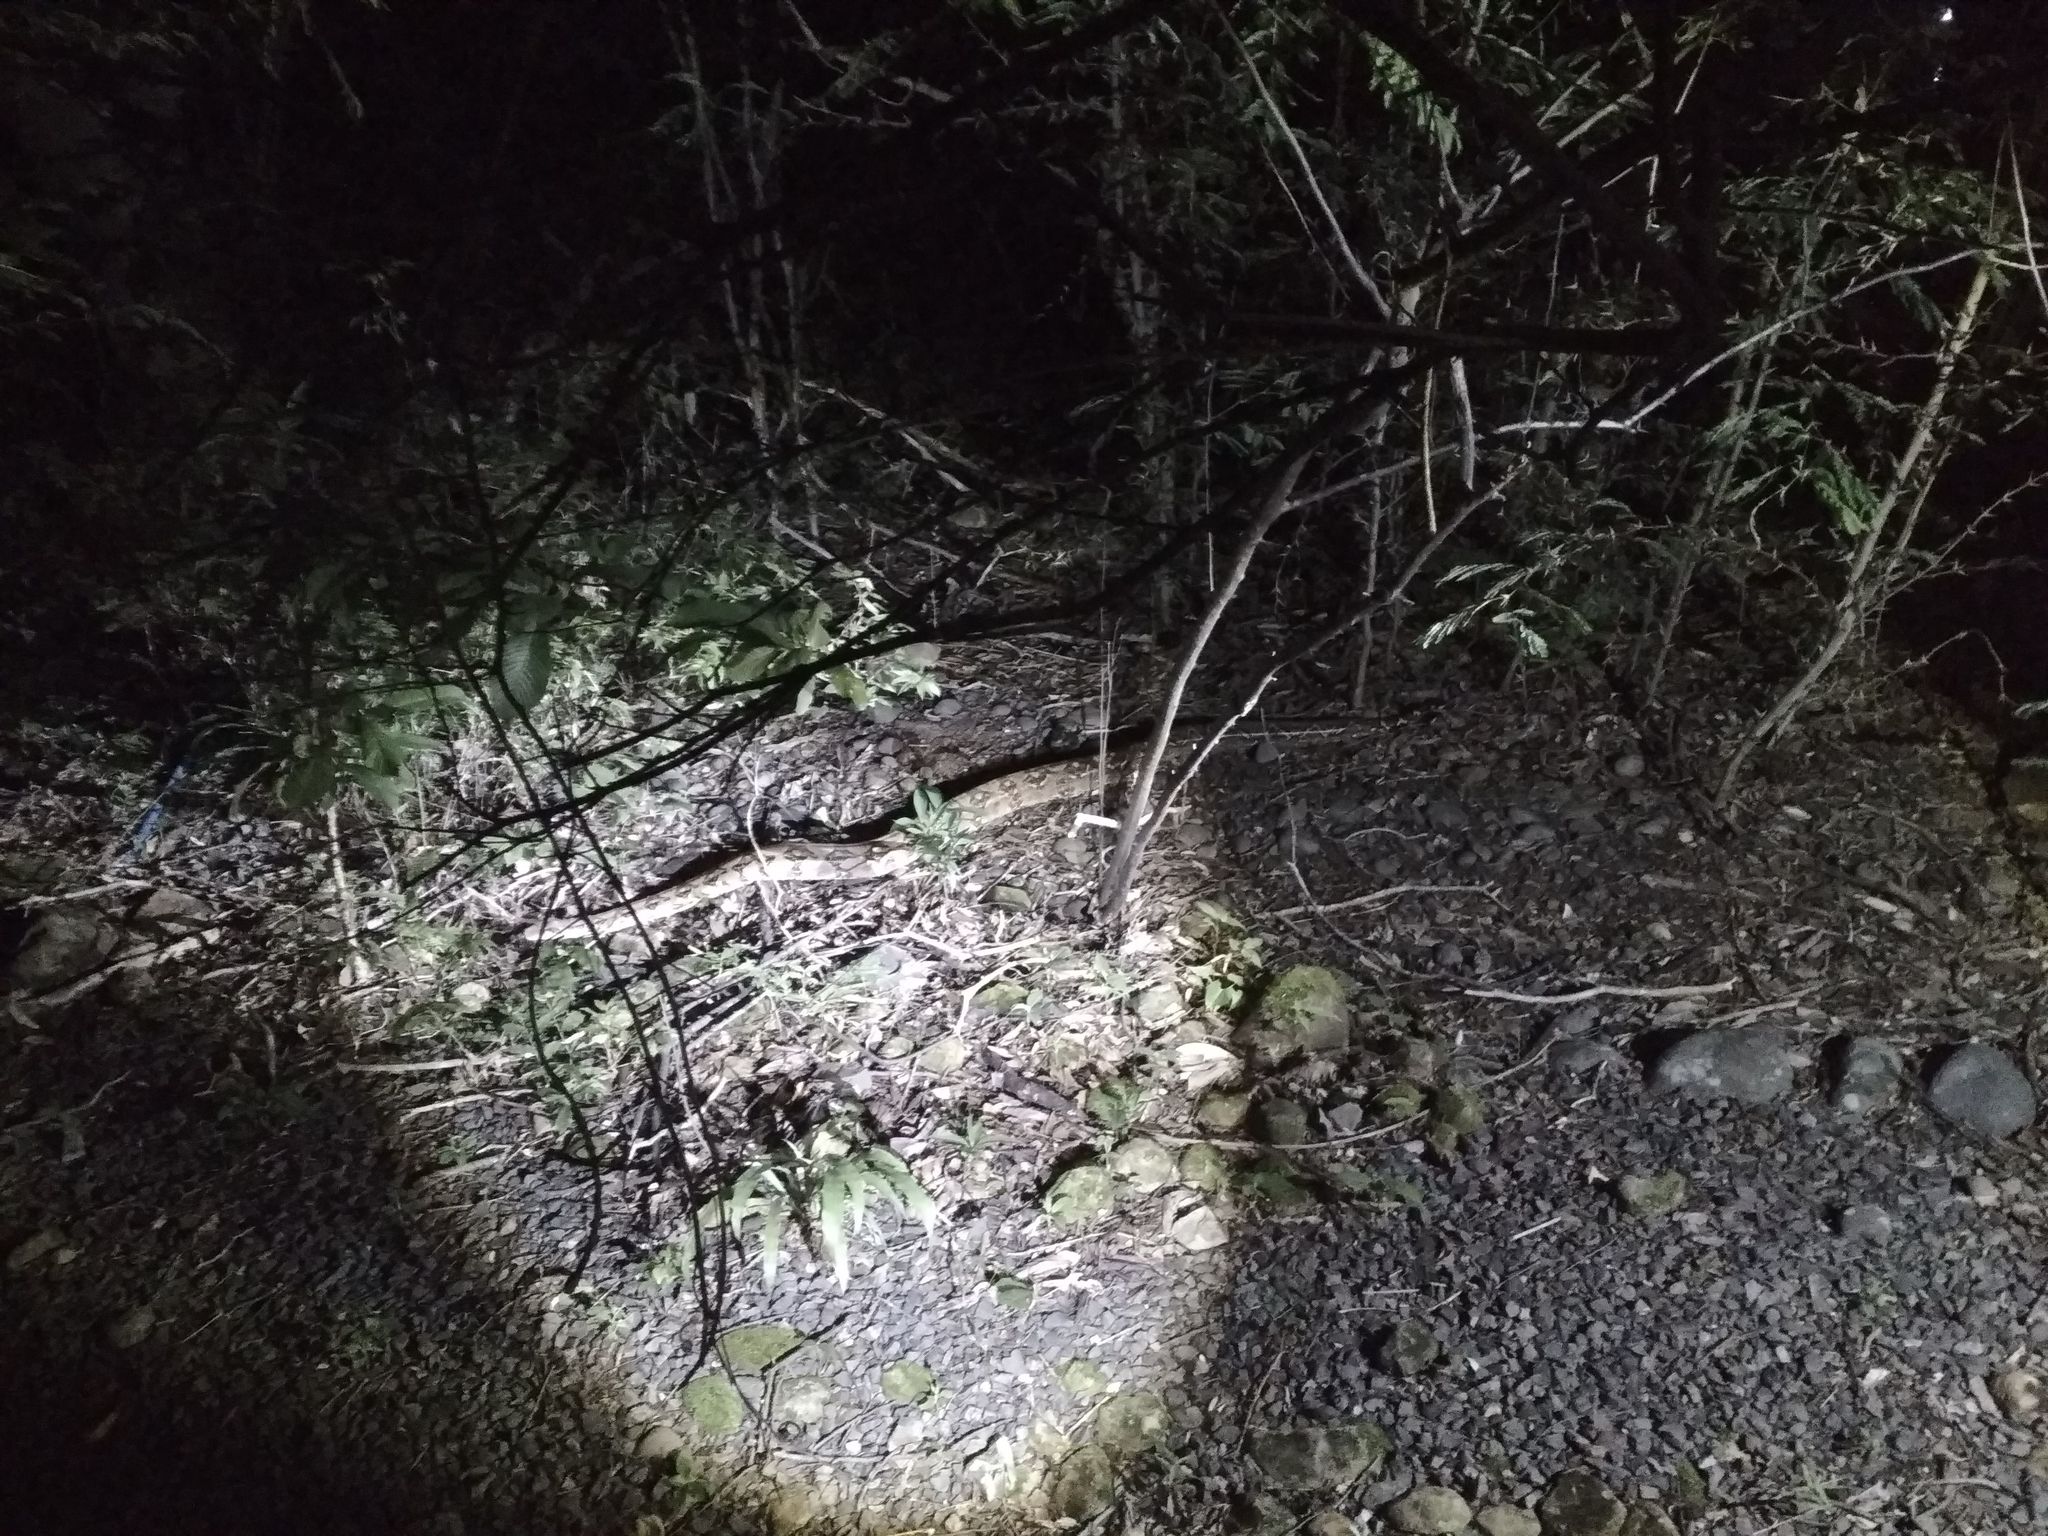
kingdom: Animalia
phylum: Chordata
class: Squamata
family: Boidae
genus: Boa
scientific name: Boa imperator
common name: Central american boa
